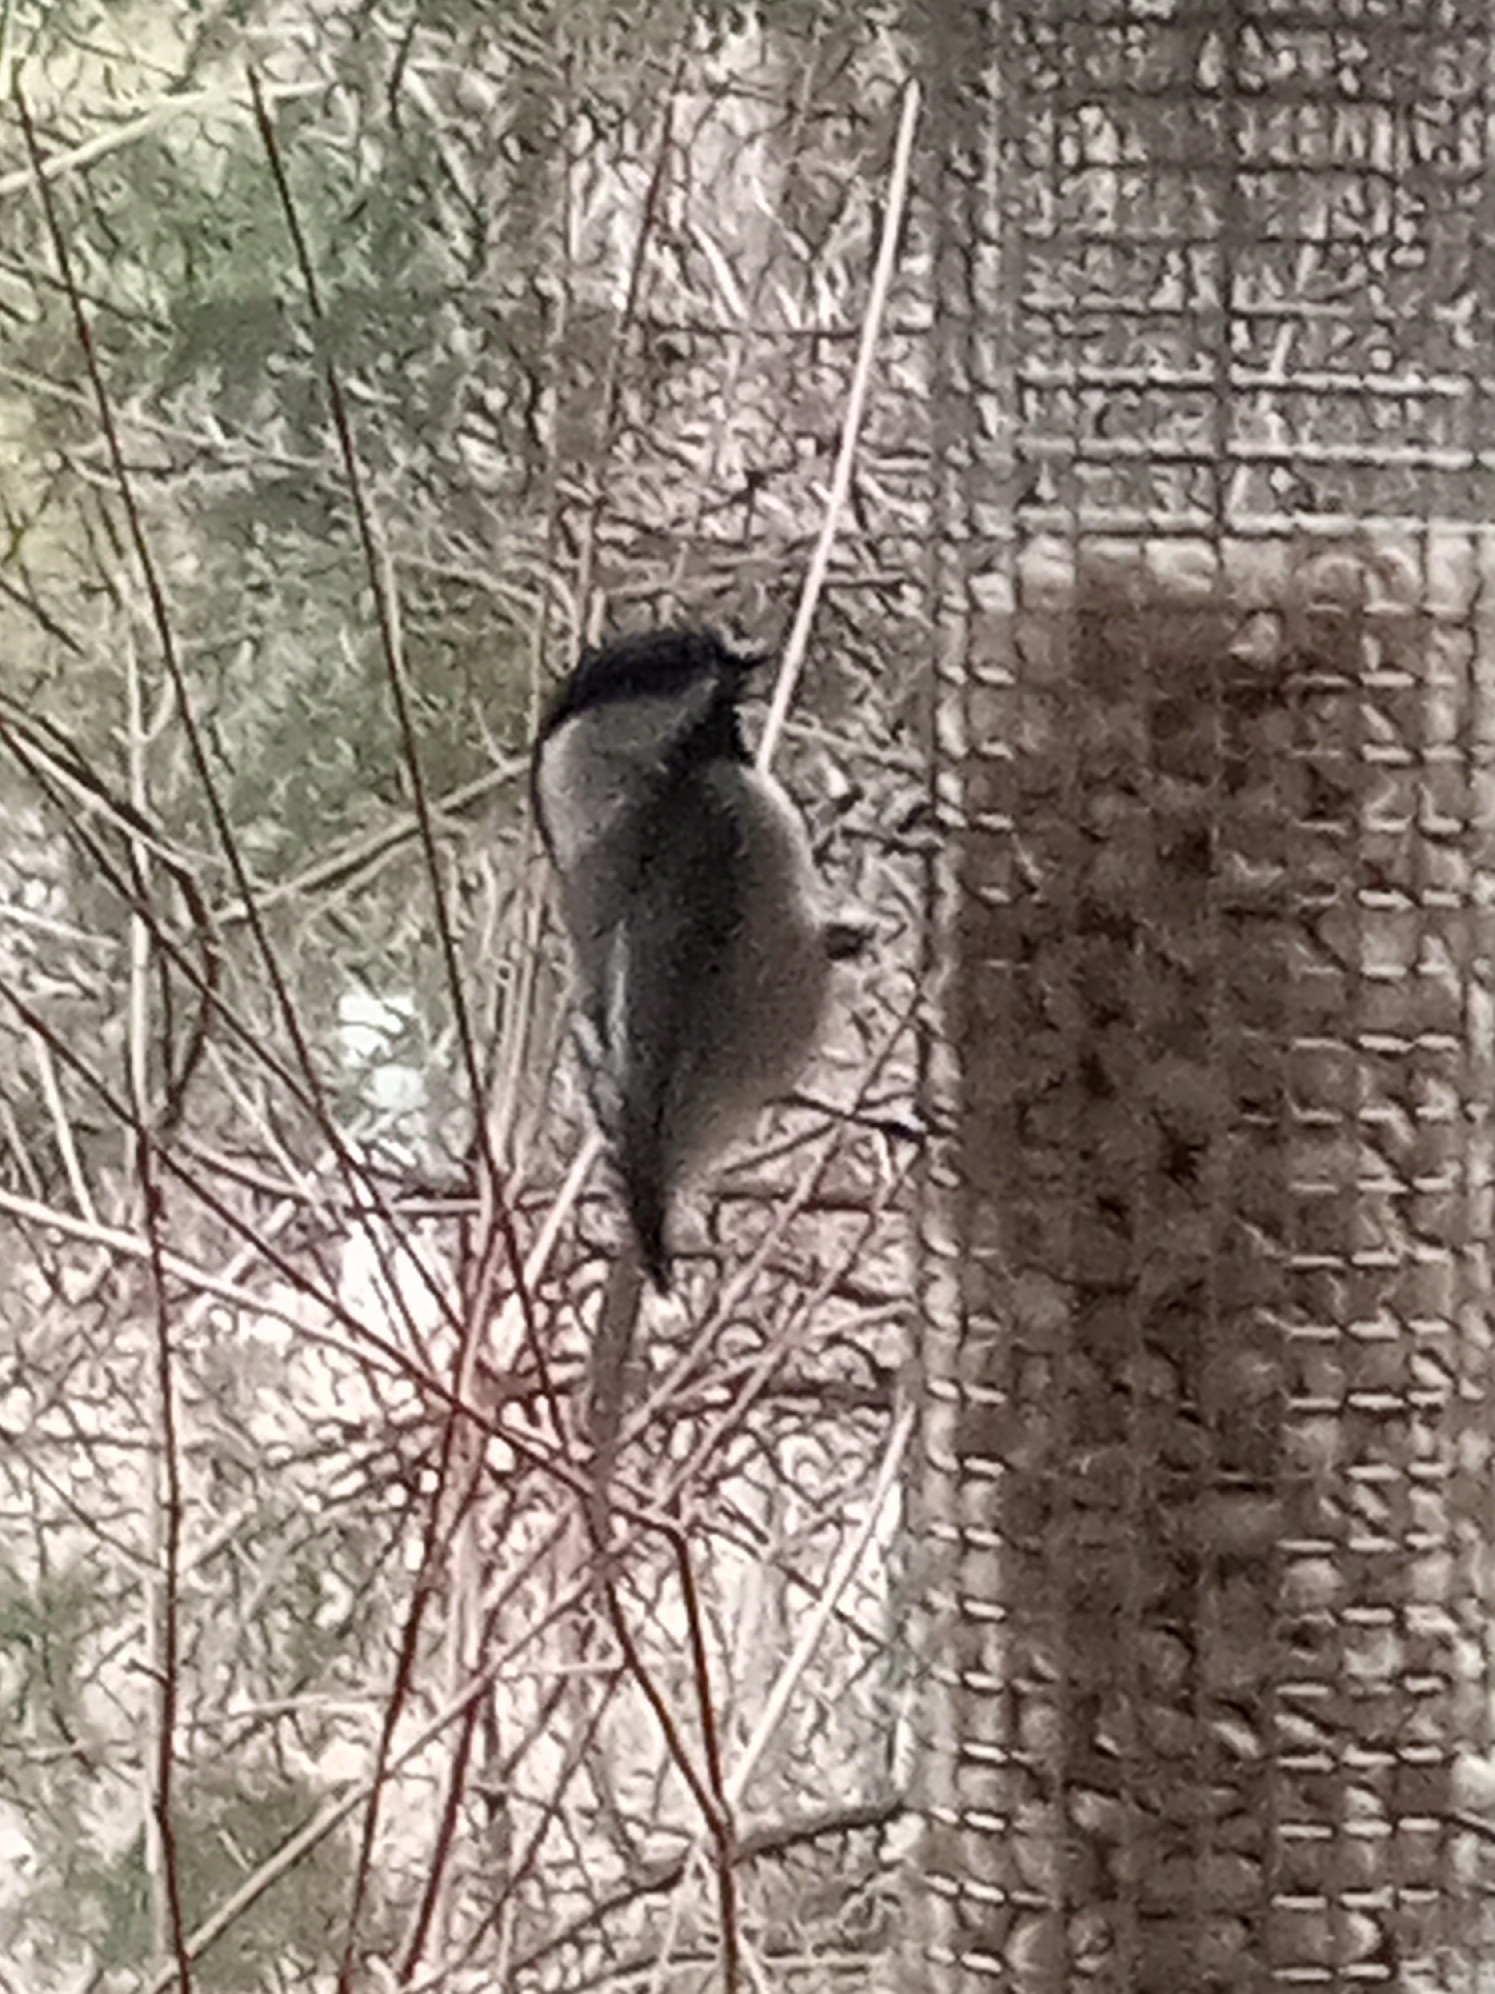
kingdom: Animalia
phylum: Chordata
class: Aves
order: Passeriformes
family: Paridae
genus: Poecile
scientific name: Poecile atricapillus
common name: Black-capped chickadee
